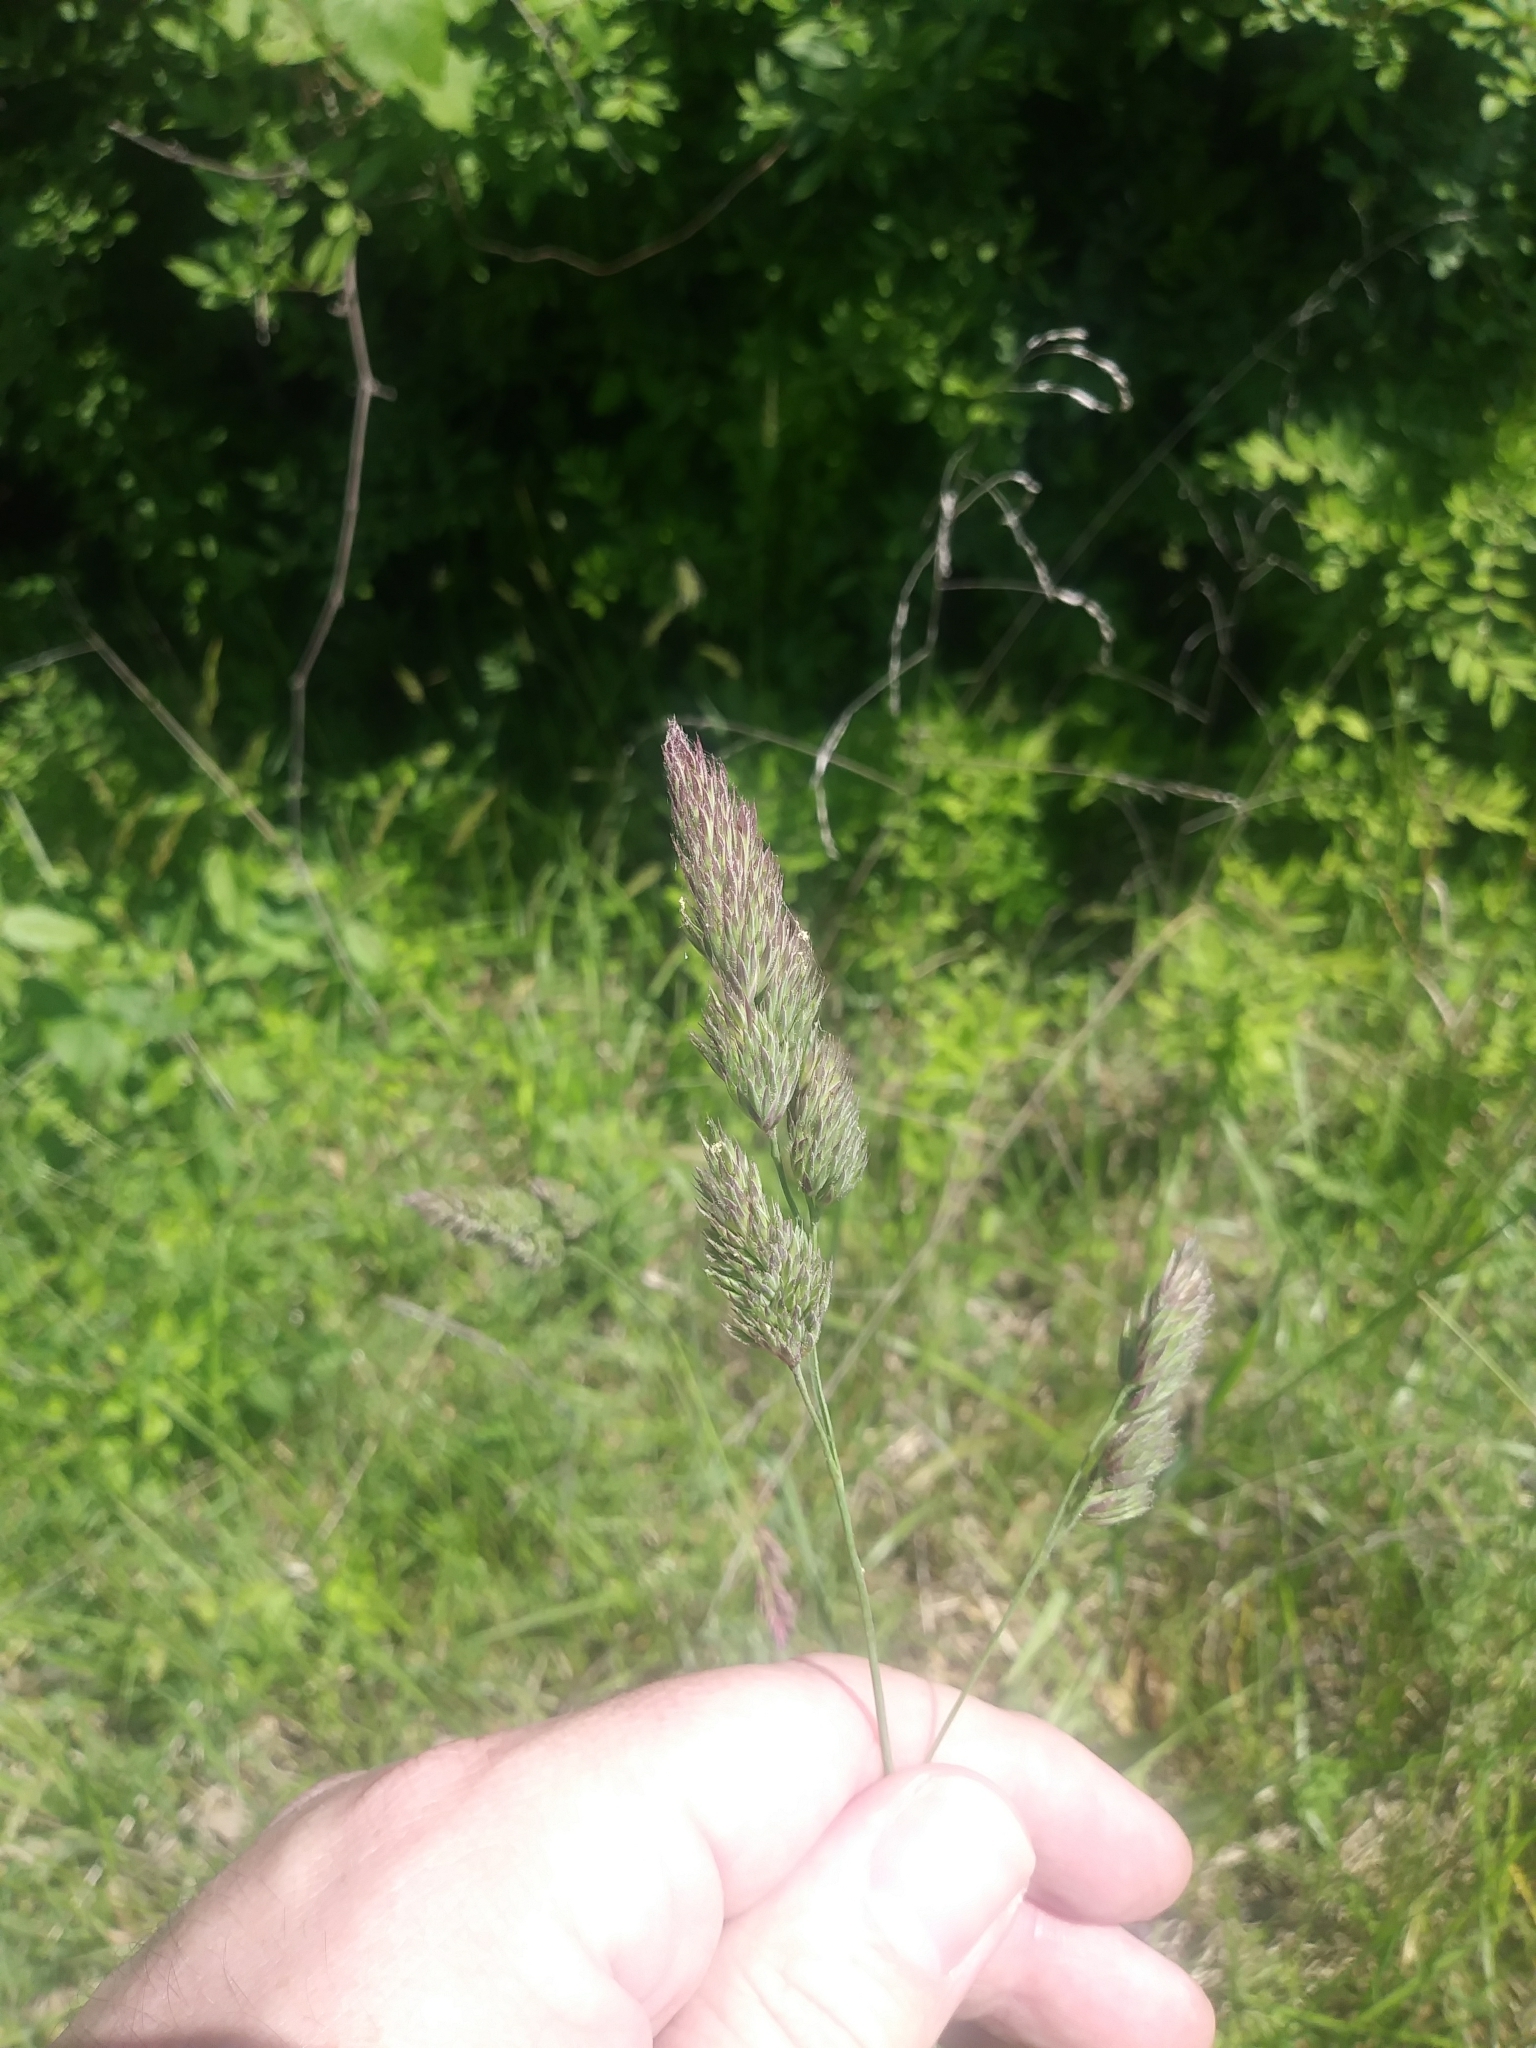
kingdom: Plantae
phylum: Tracheophyta
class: Liliopsida
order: Poales
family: Poaceae
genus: Dactylis
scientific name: Dactylis glomerata
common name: Orchardgrass
